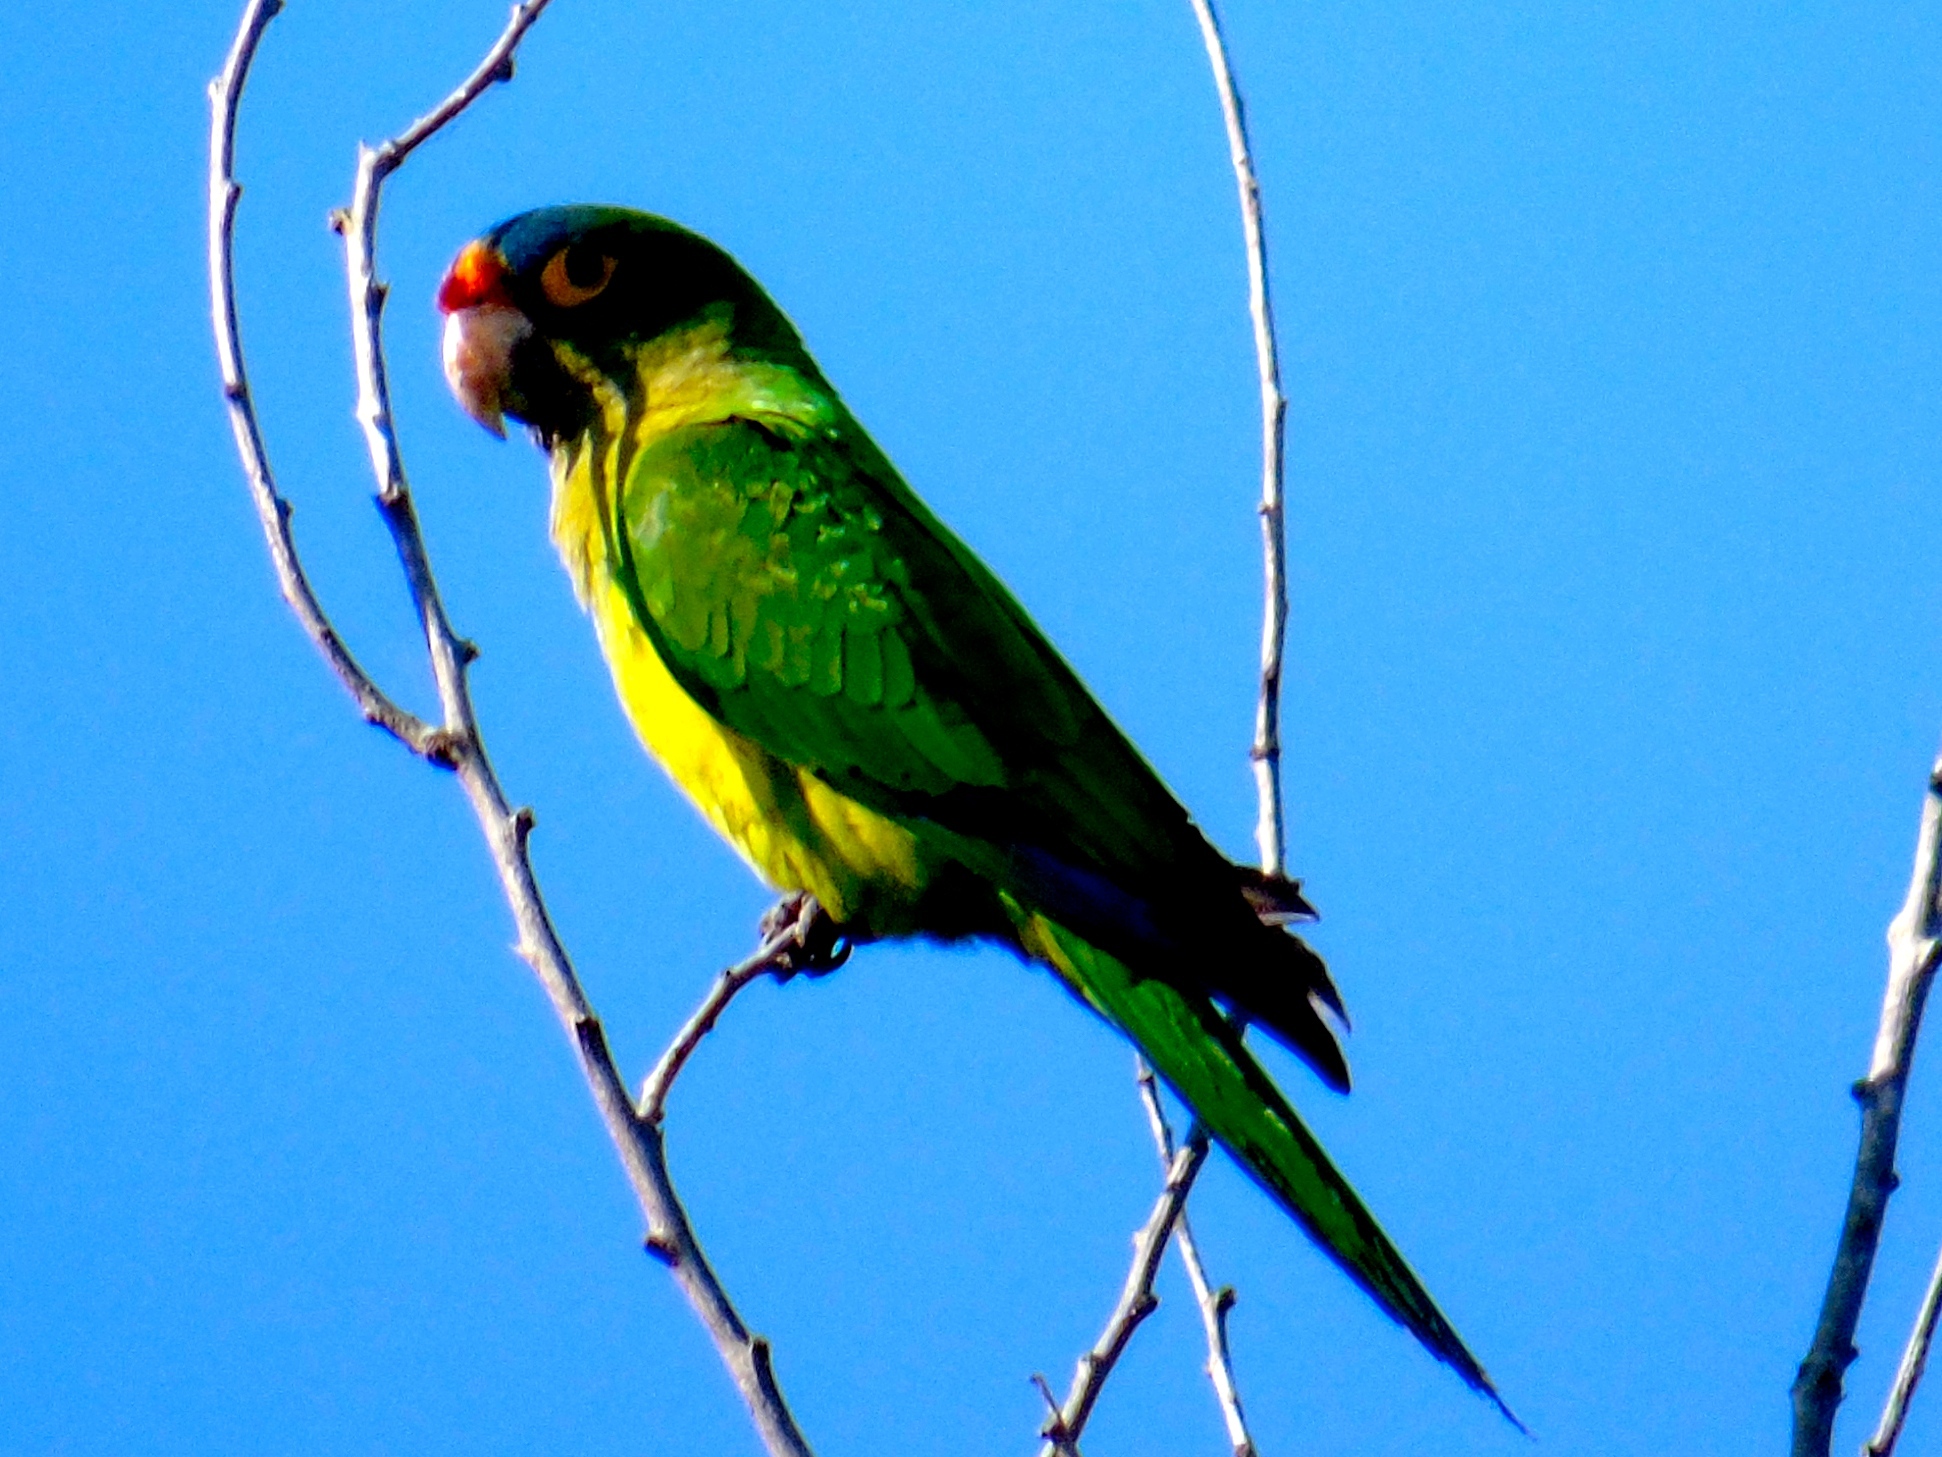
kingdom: Animalia
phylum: Chordata
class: Aves
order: Psittaciformes
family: Psittacidae
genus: Aratinga
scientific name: Aratinga canicularis
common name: Orange-fronted parakeet
